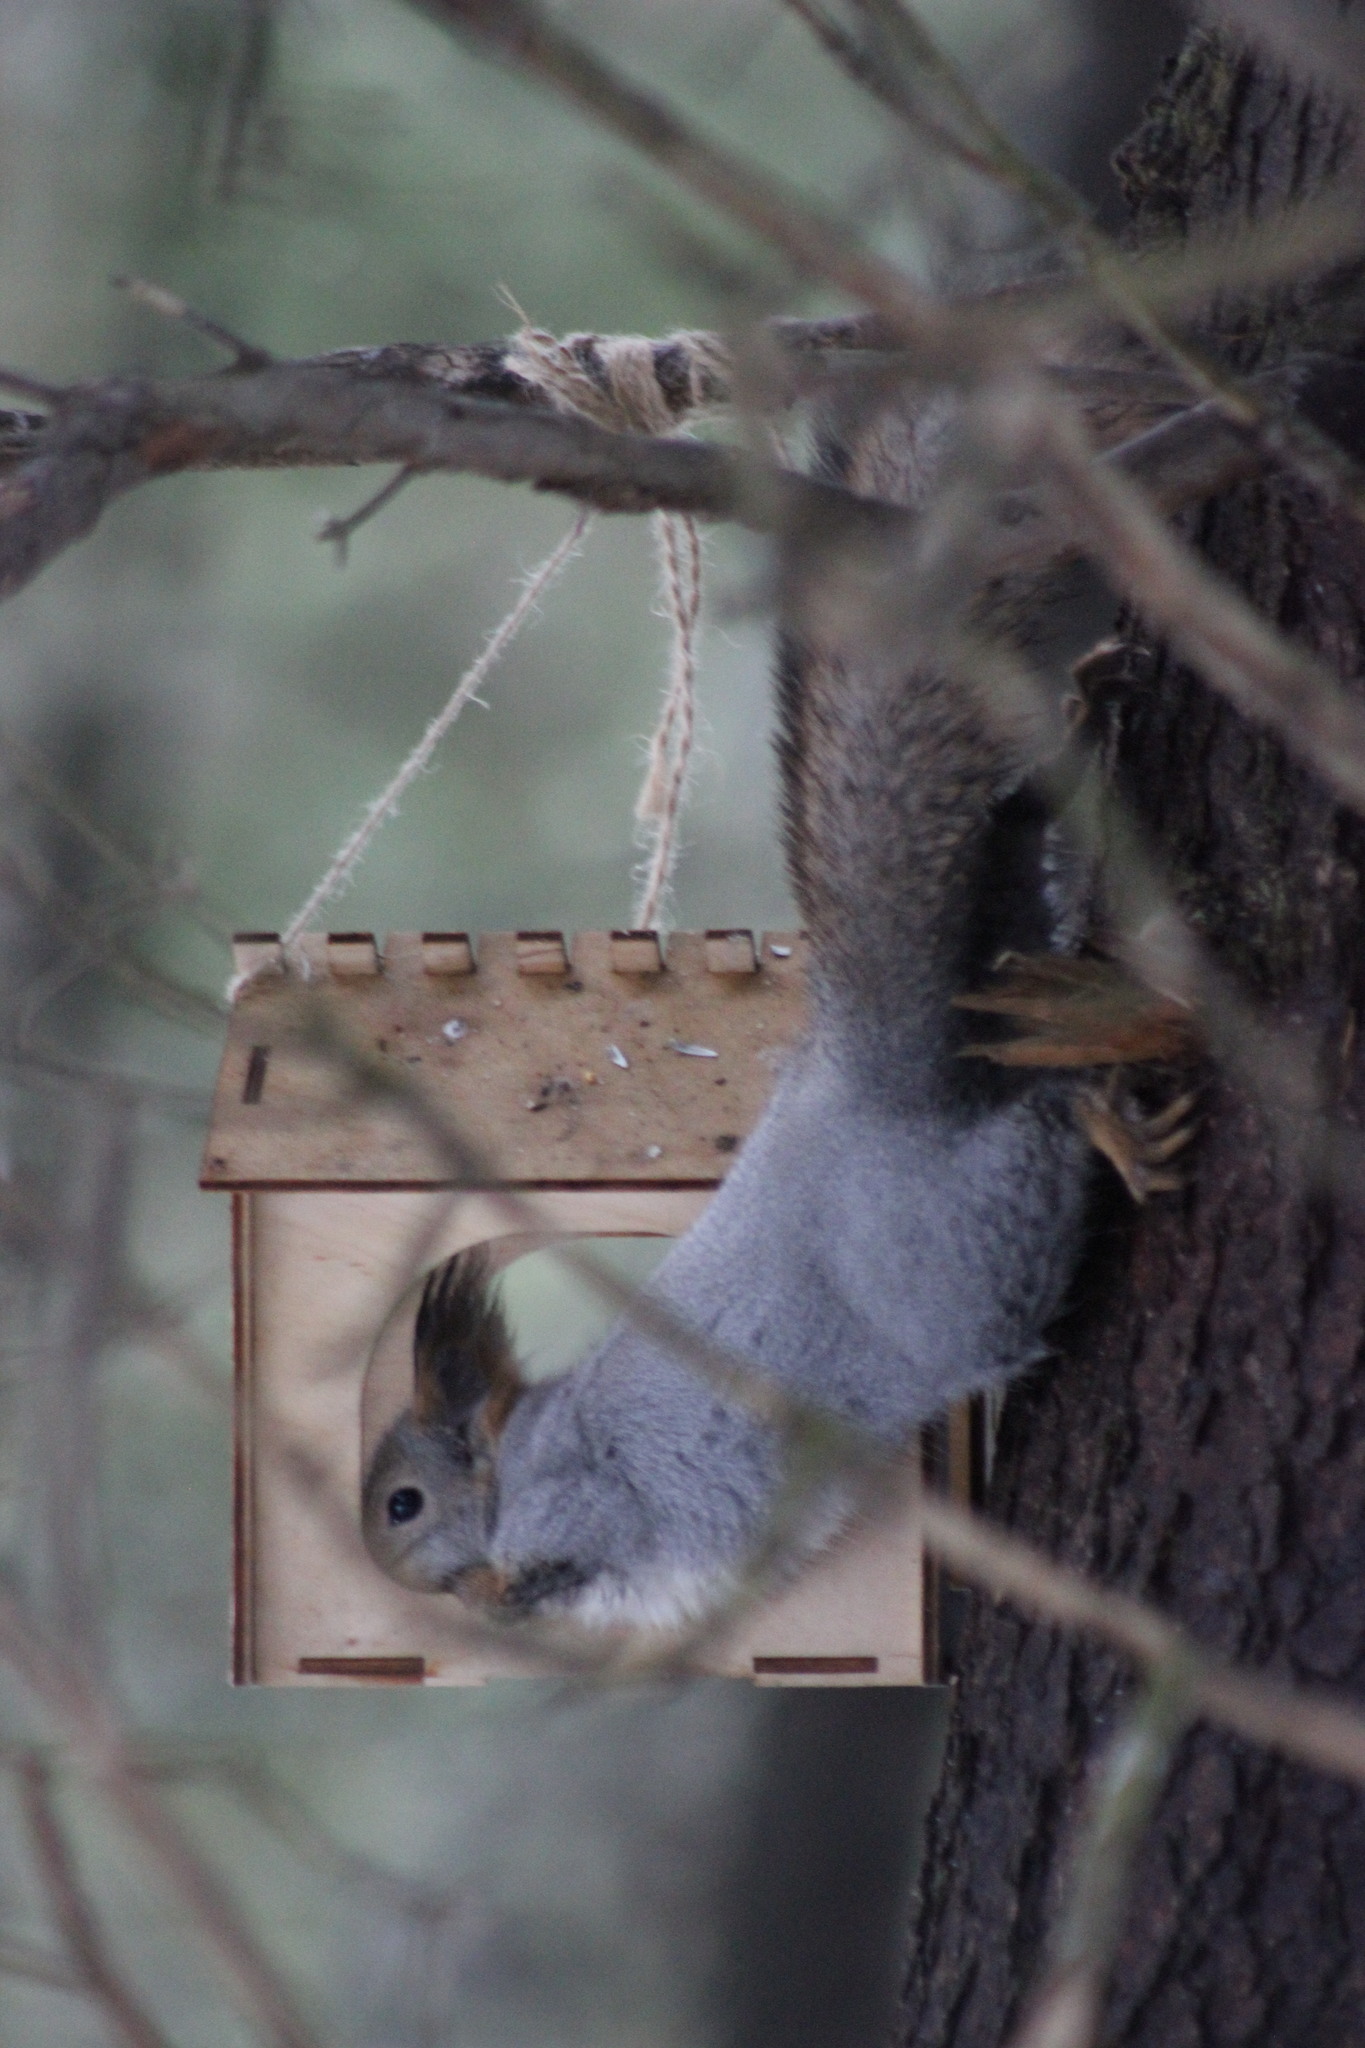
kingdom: Animalia
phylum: Chordata
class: Mammalia
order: Rodentia
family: Sciuridae
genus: Sciurus
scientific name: Sciurus vulgaris
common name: Eurasian red squirrel
